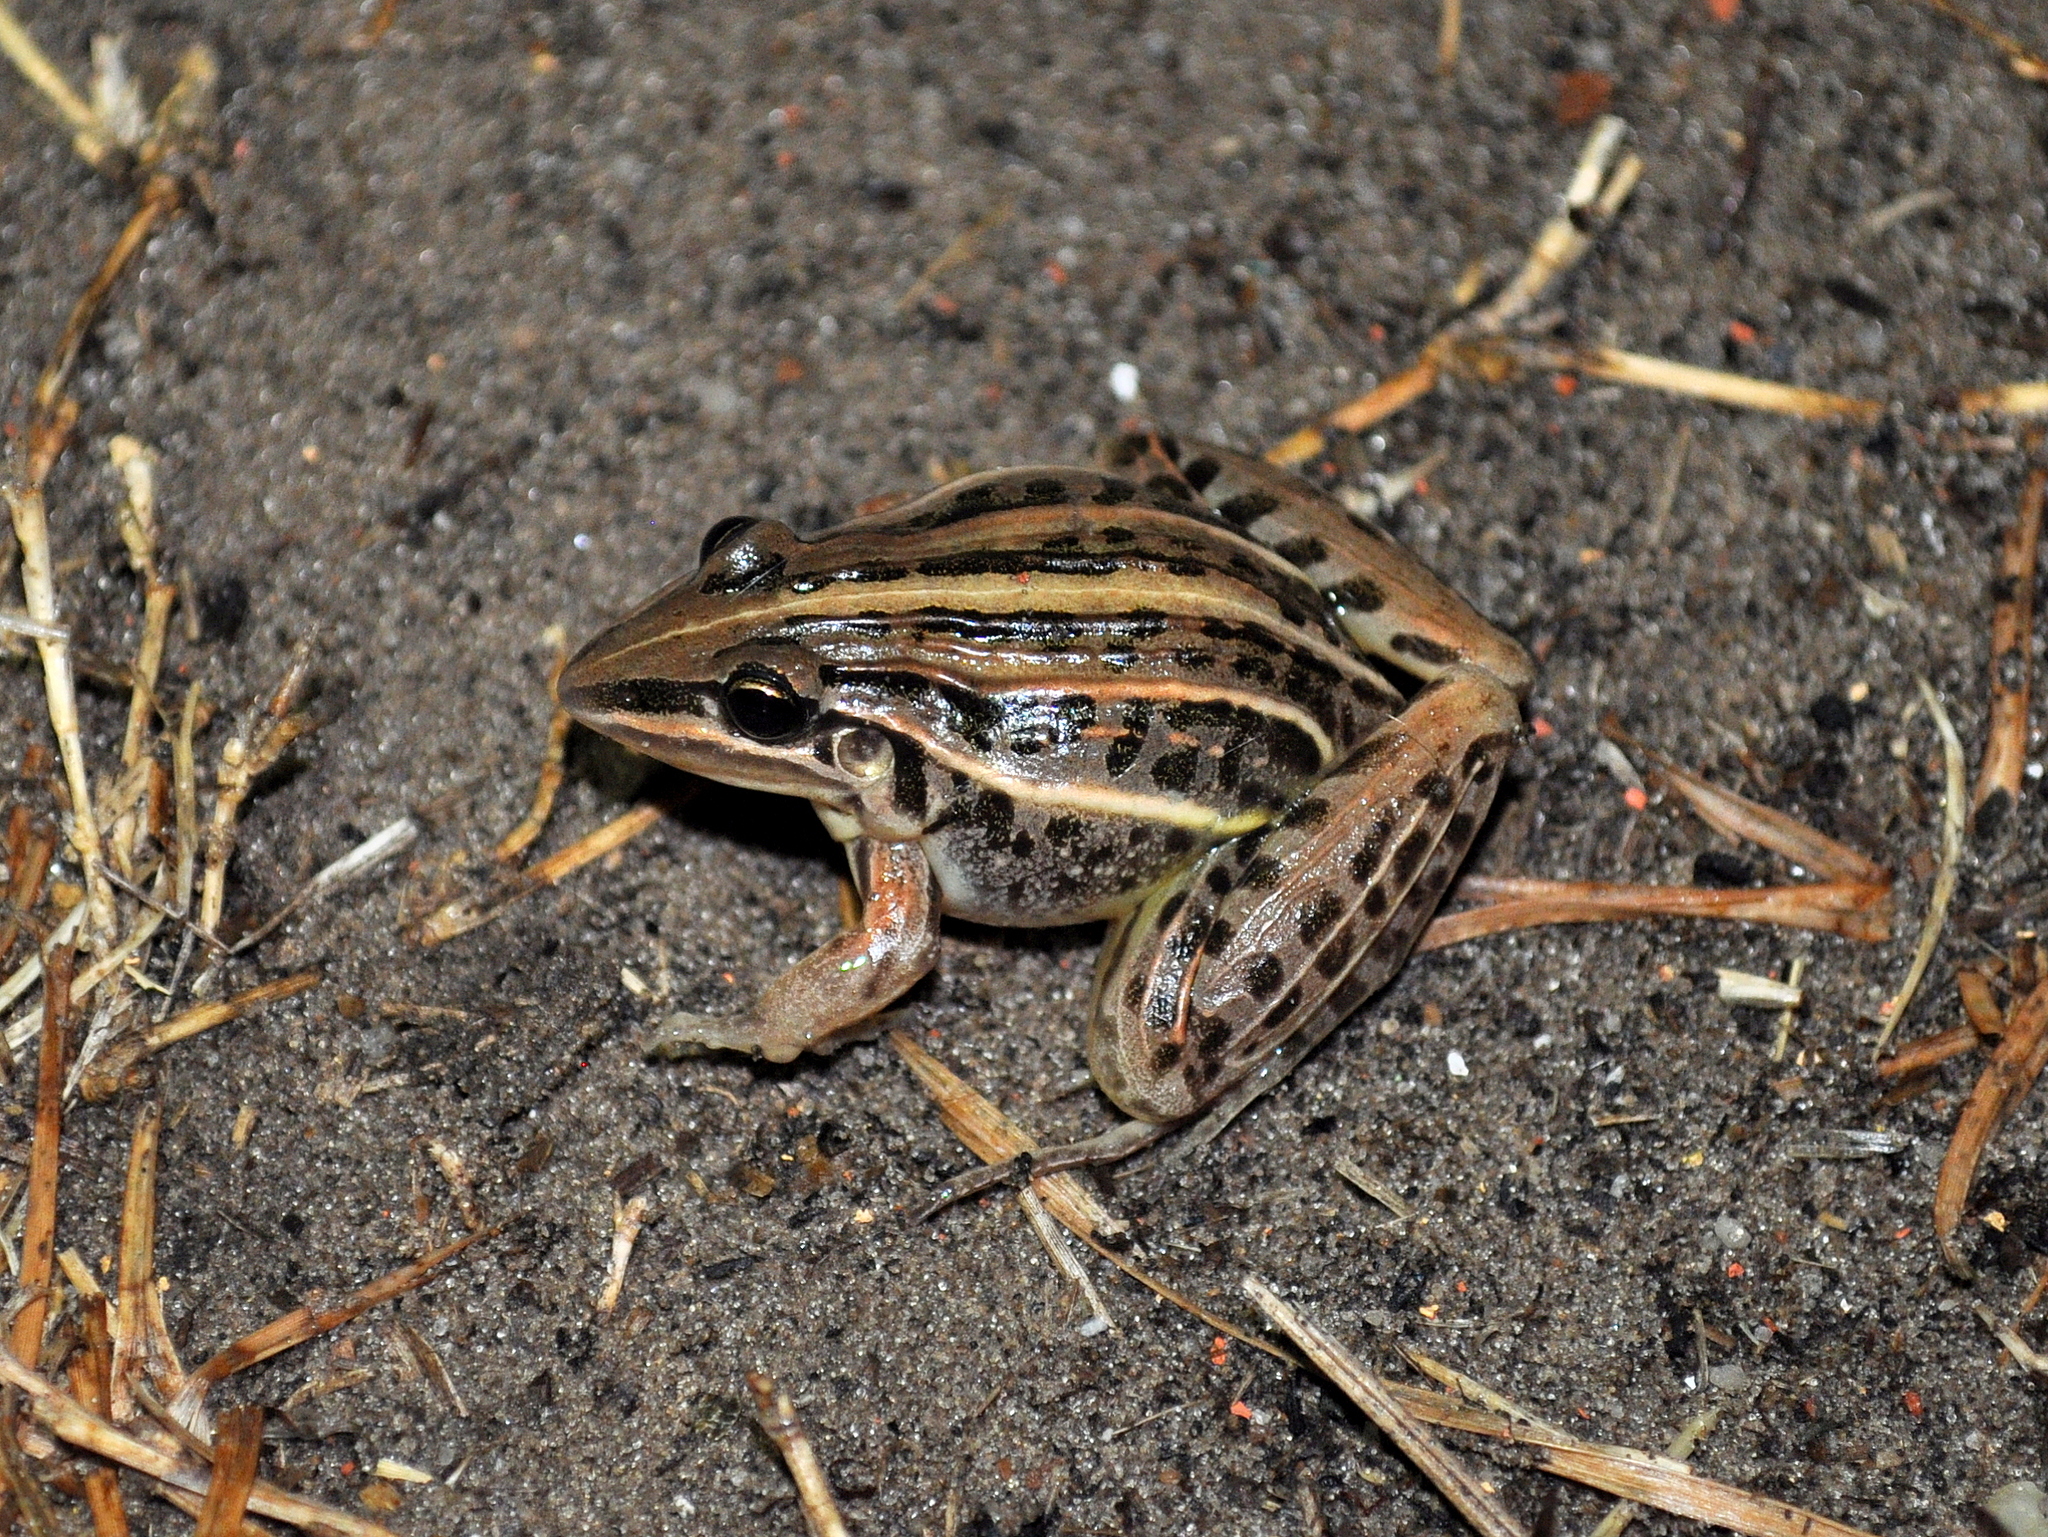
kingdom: Animalia
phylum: Chordata
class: Amphibia
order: Anura
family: Leptodactylidae
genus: Leptodactylus
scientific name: Leptodactylus gracilis
